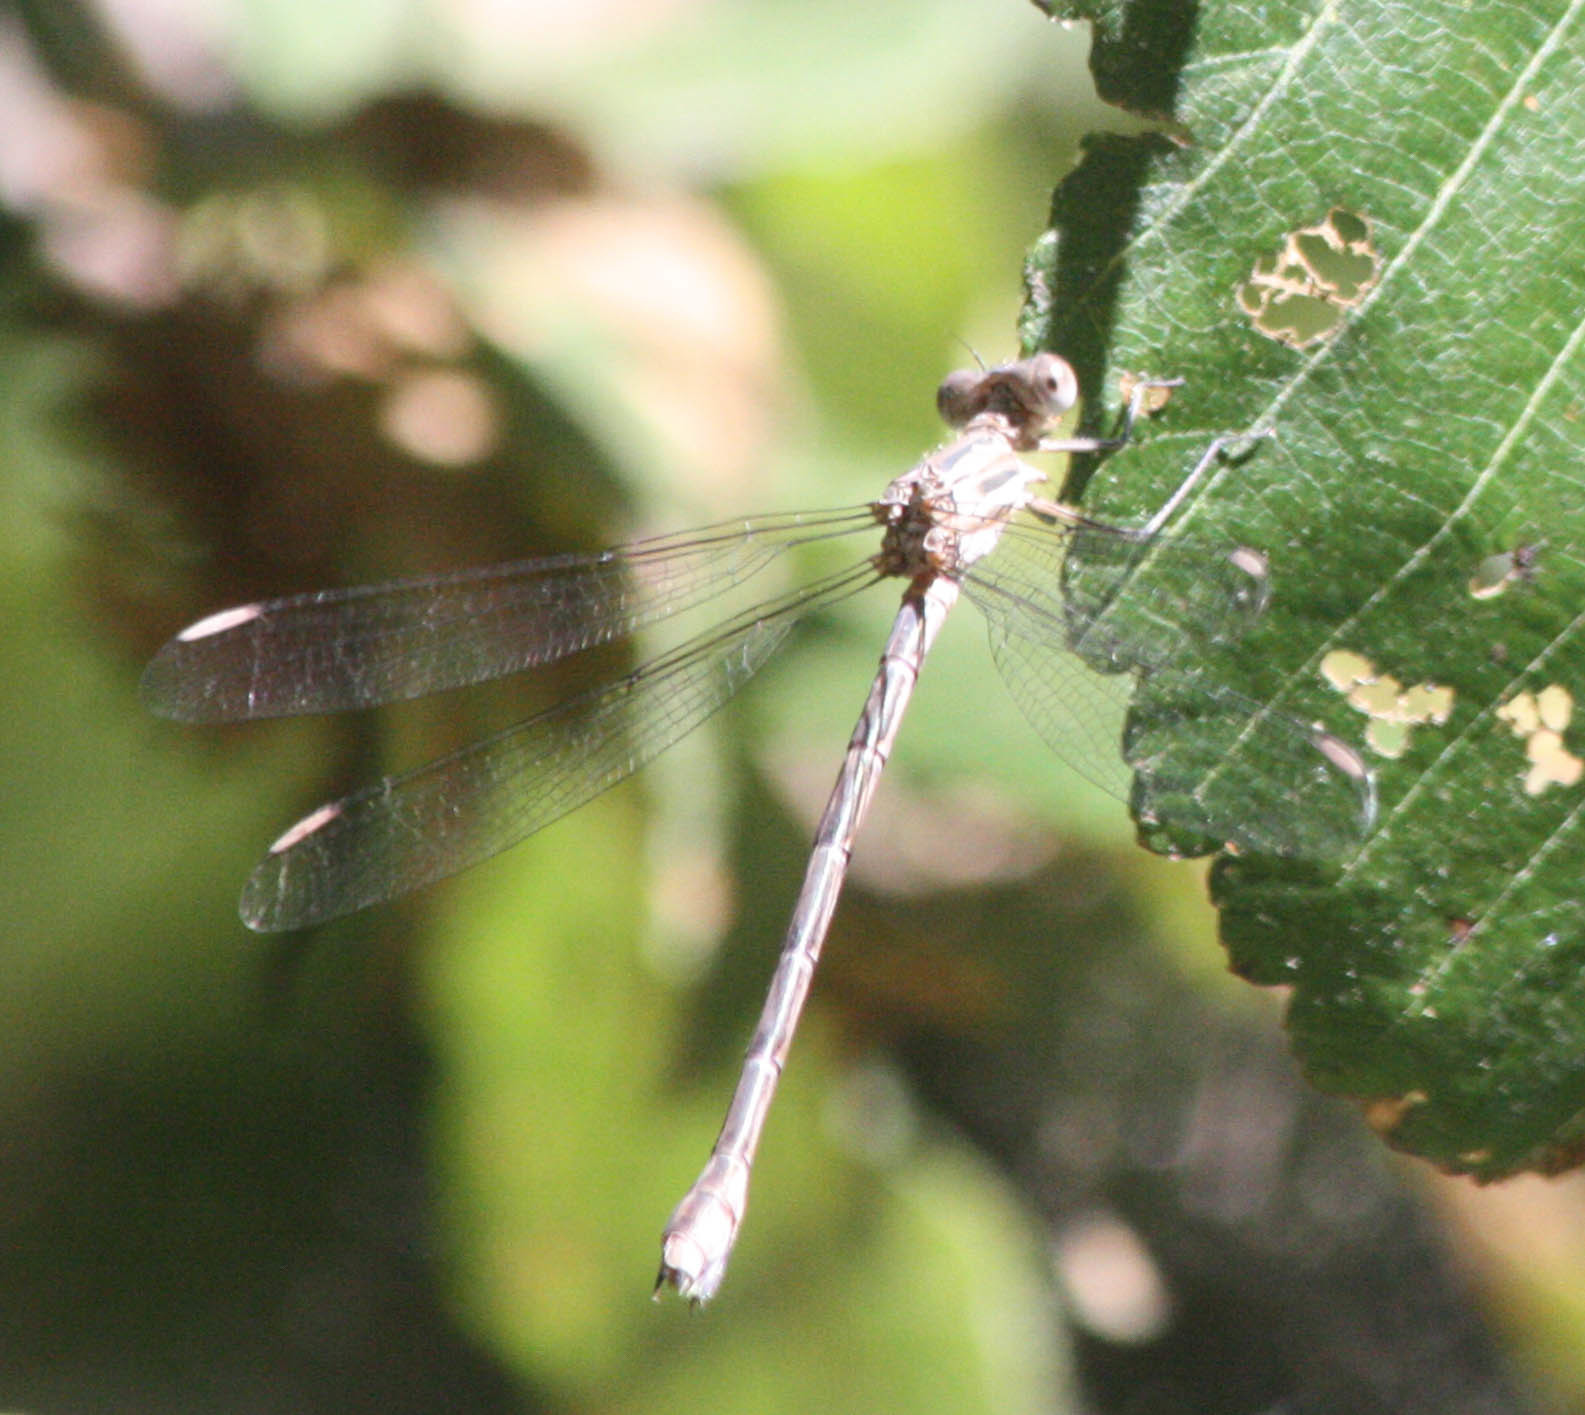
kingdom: Animalia
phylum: Arthropoda
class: Insecta
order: Odonata
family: Lestidae
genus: Archilestes
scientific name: Archilestes californicus
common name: California spreadwing
